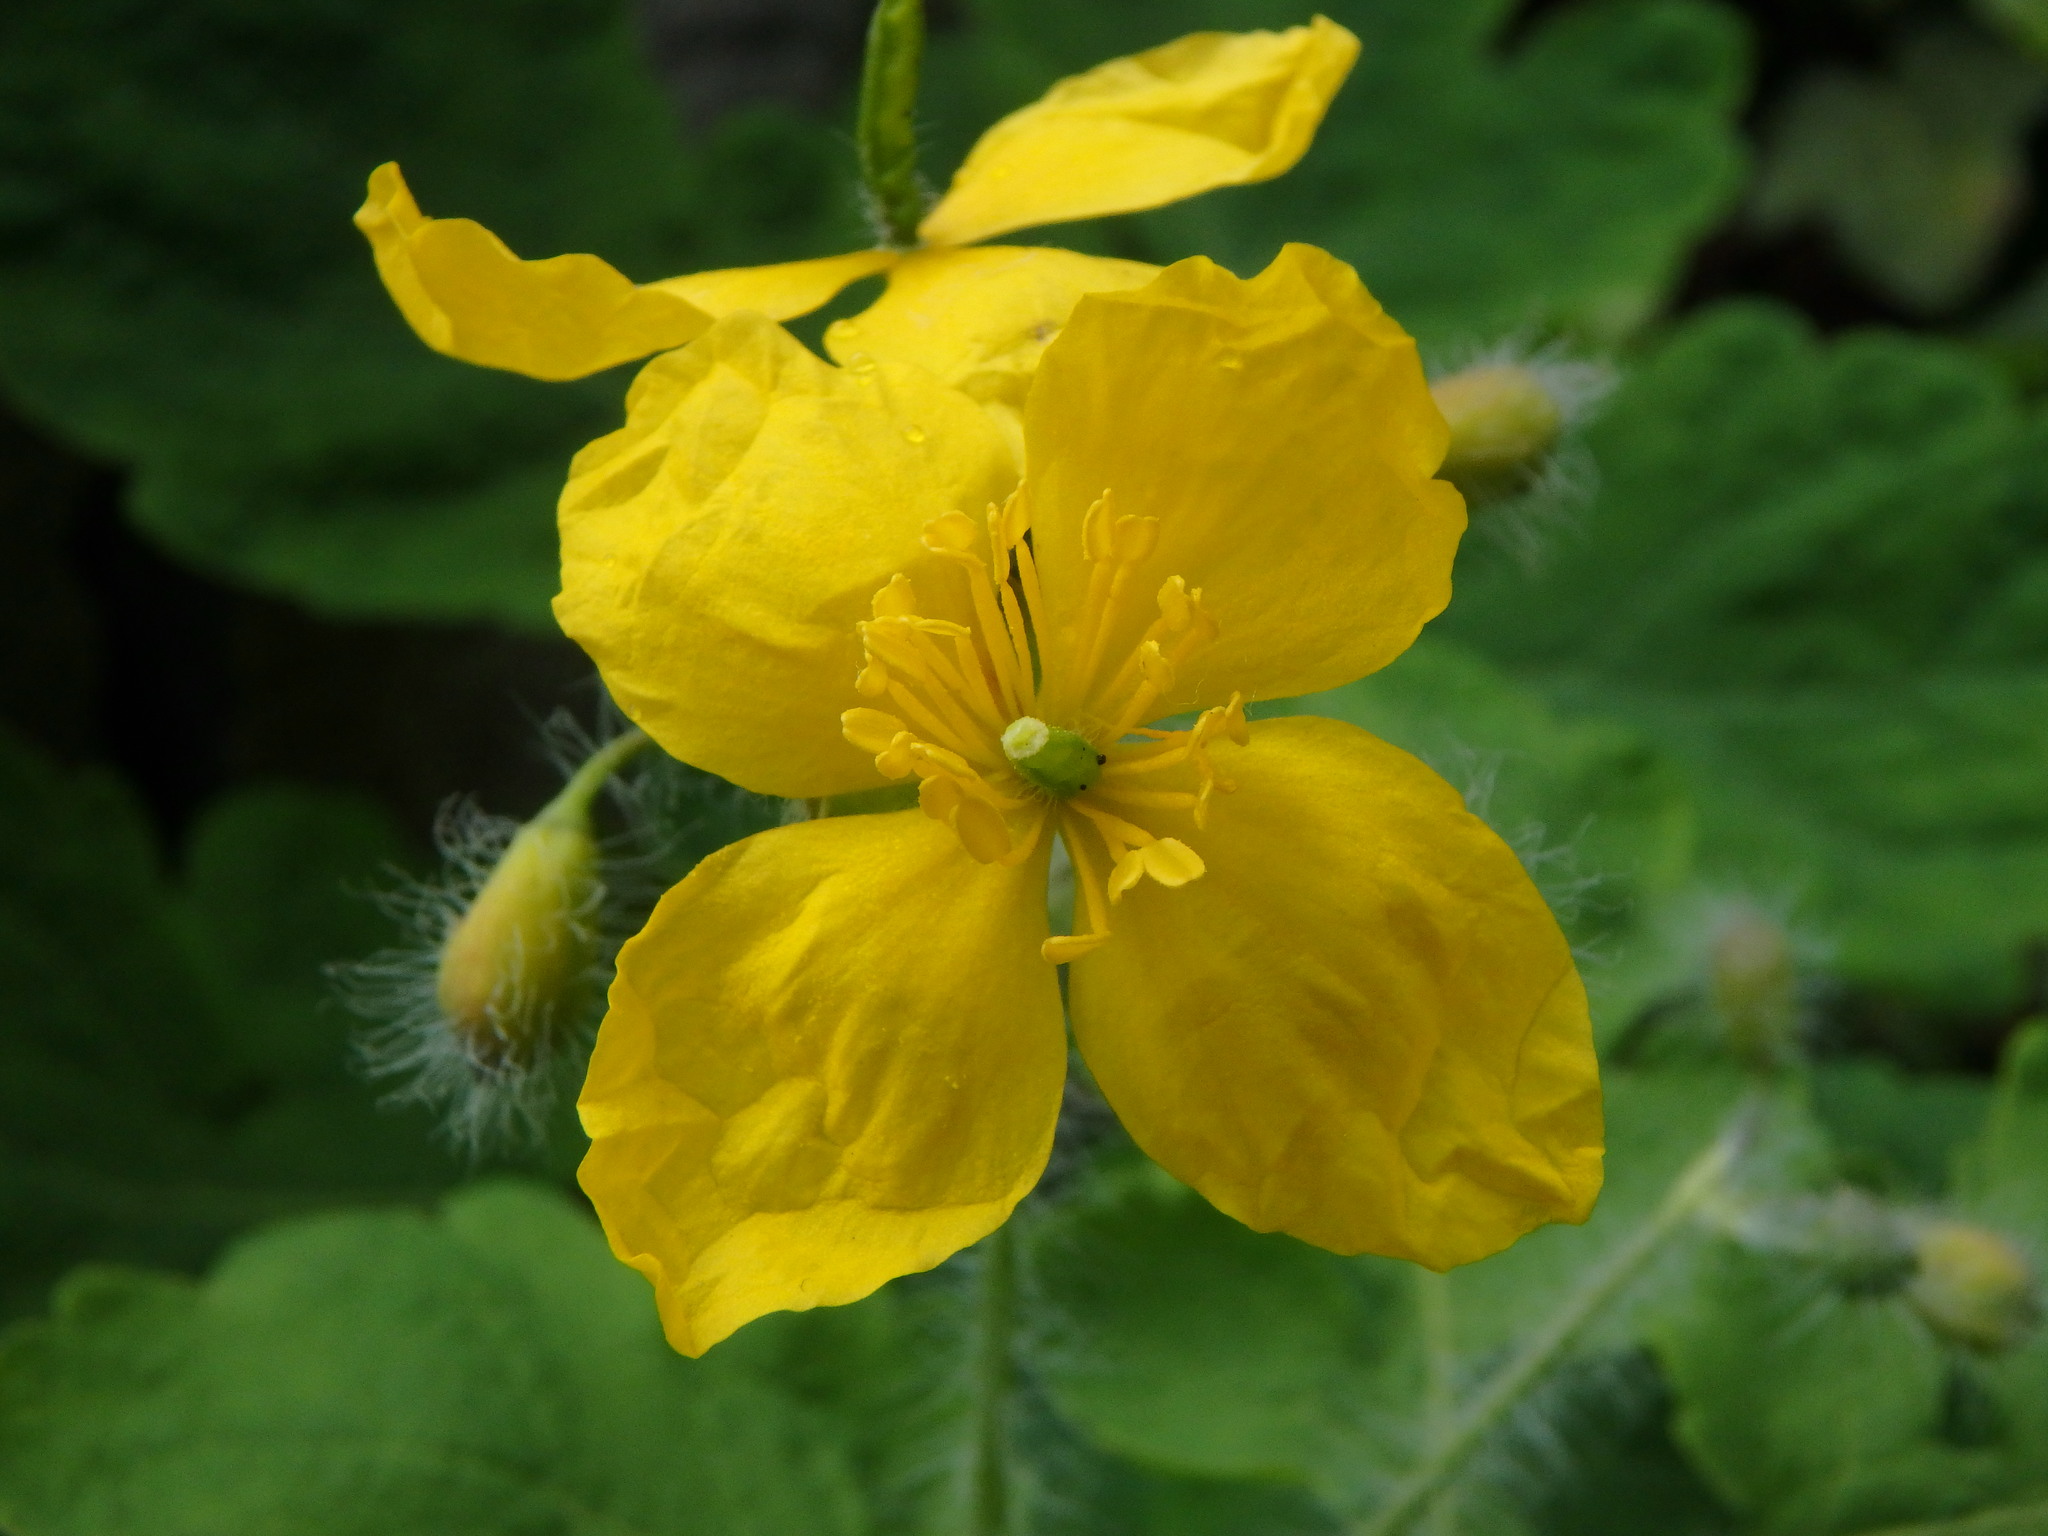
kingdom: Plantae
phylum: Tracheophyta
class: Magnoliopsida
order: Ranunculales
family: Papaveraceae
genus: Chelidonium
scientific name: Chelidonium majus
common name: Greater celandine
